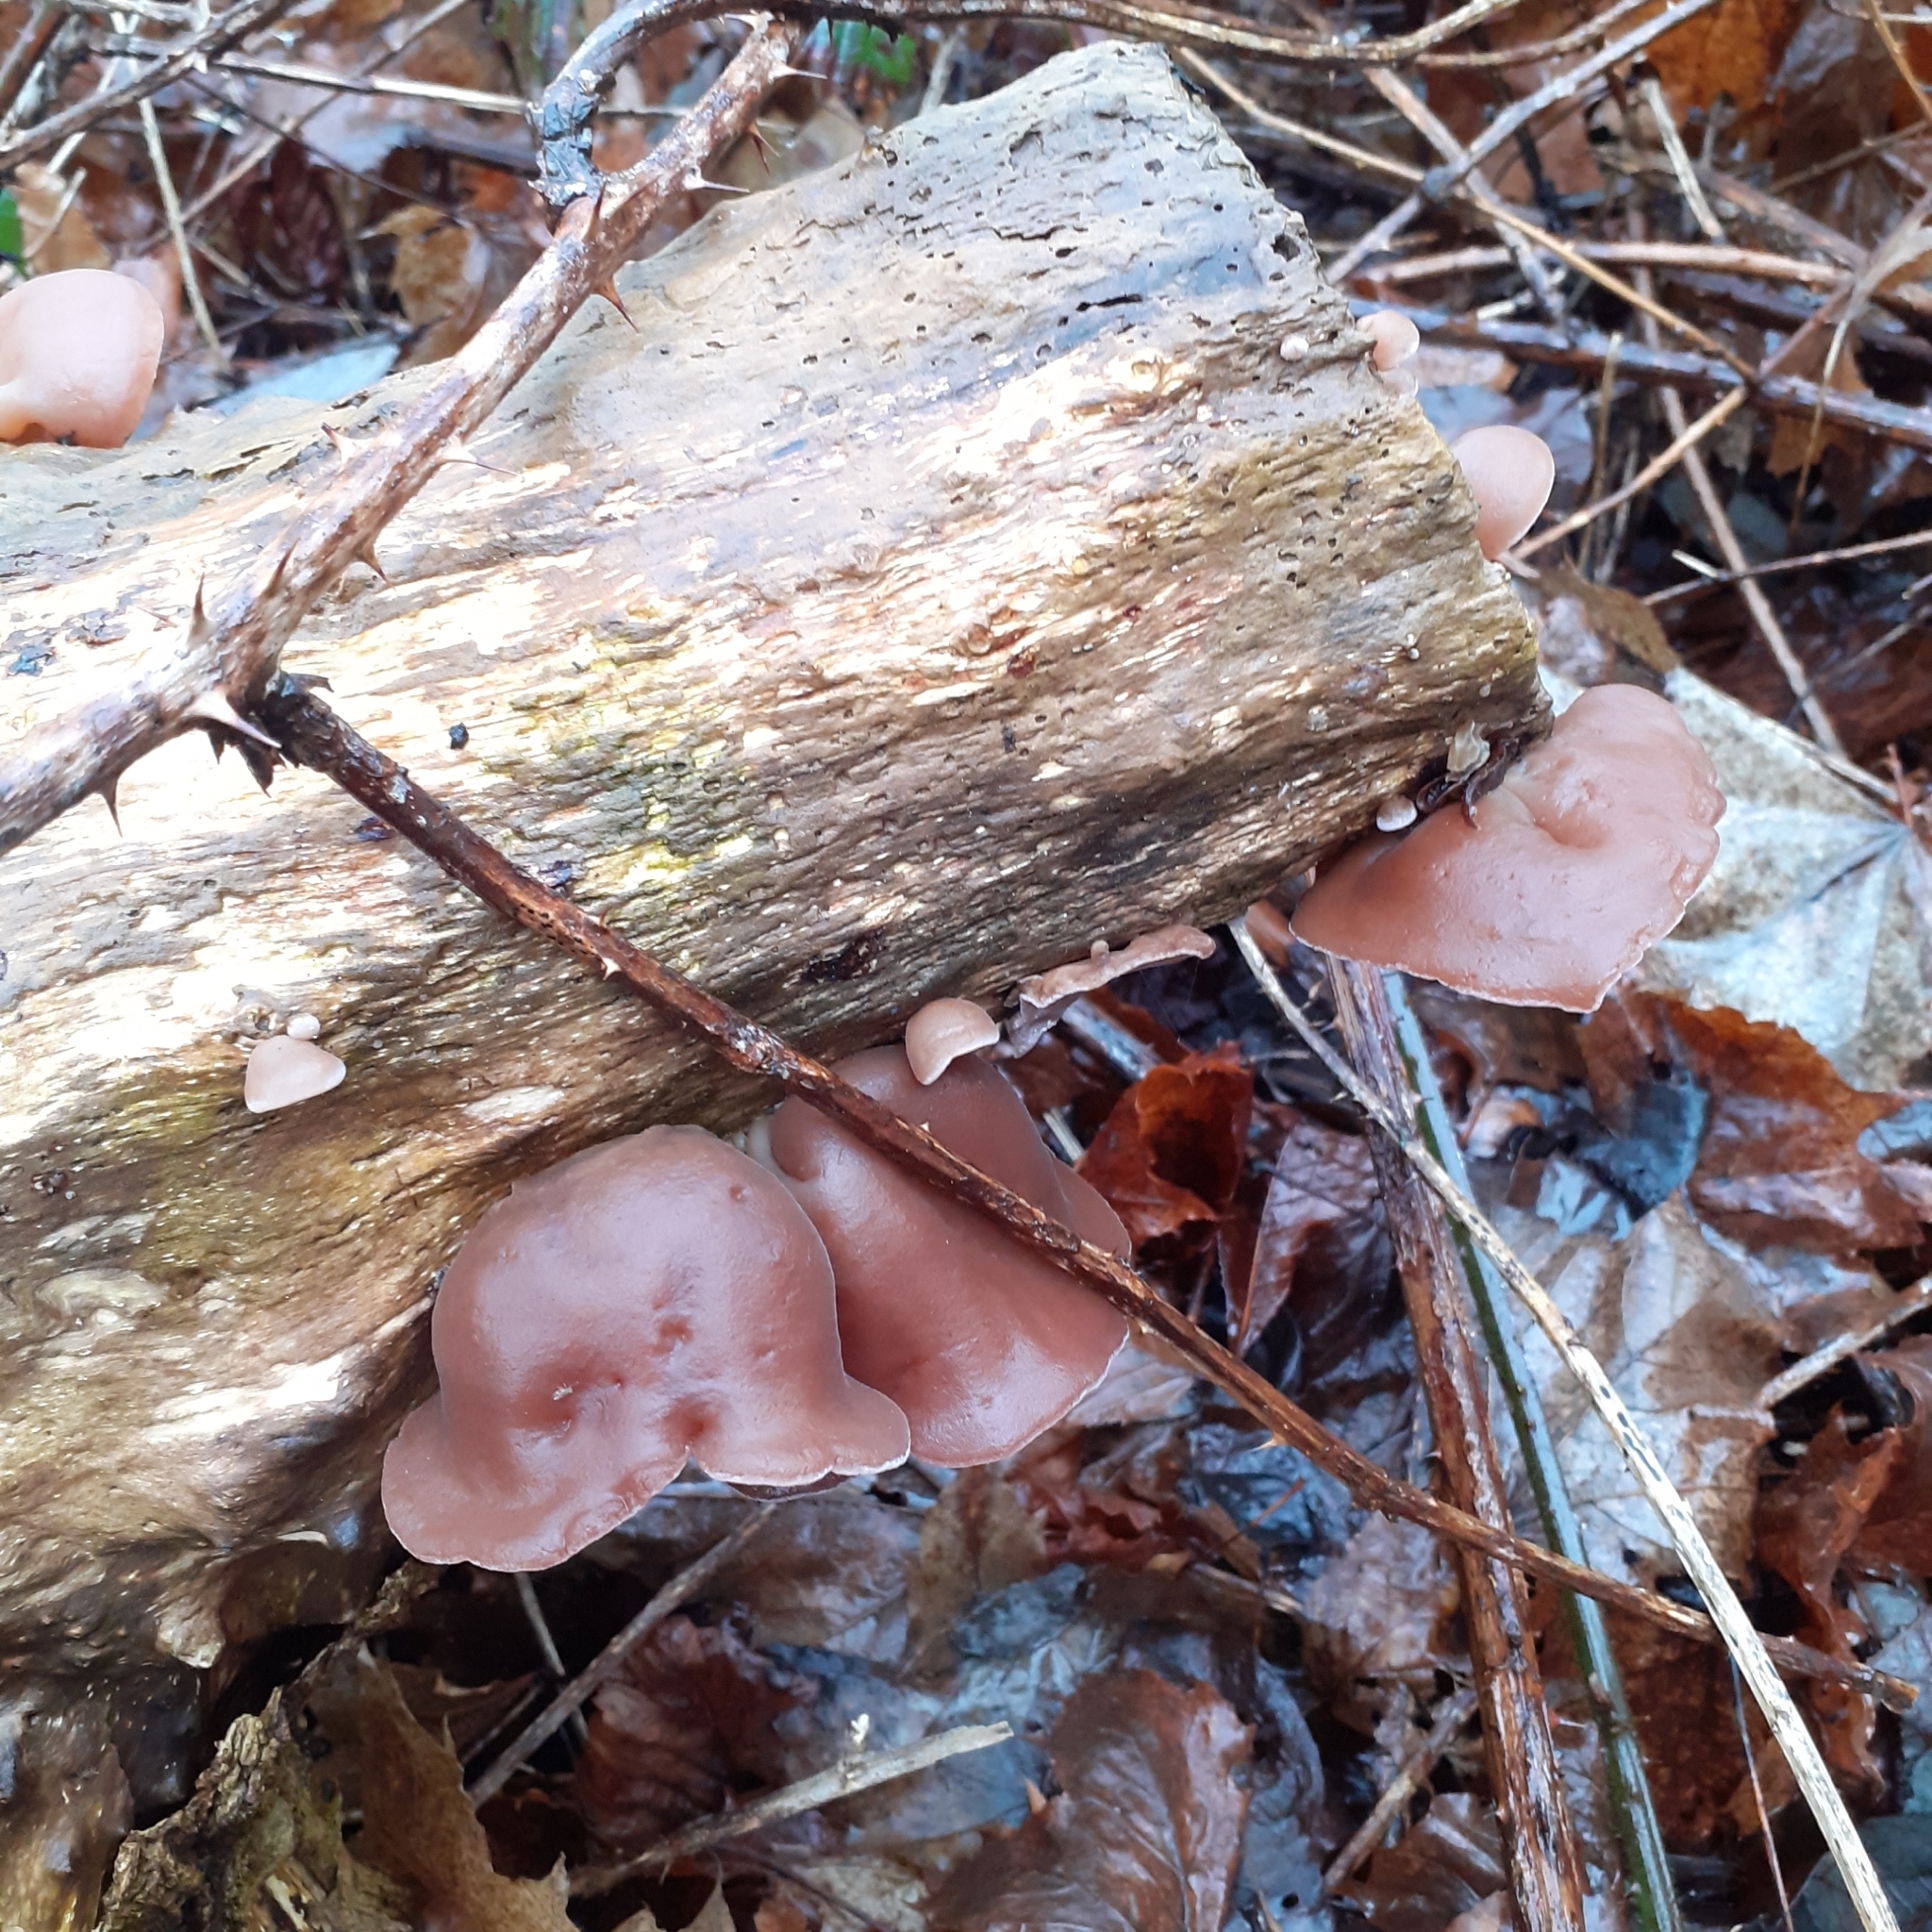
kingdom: Fungi
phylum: Basidiomycota
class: Agaricomycetes
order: Auriculariales
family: Auriculariaceae
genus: Auricularia
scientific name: Auricularia auricula-judae
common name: Jelly ear
